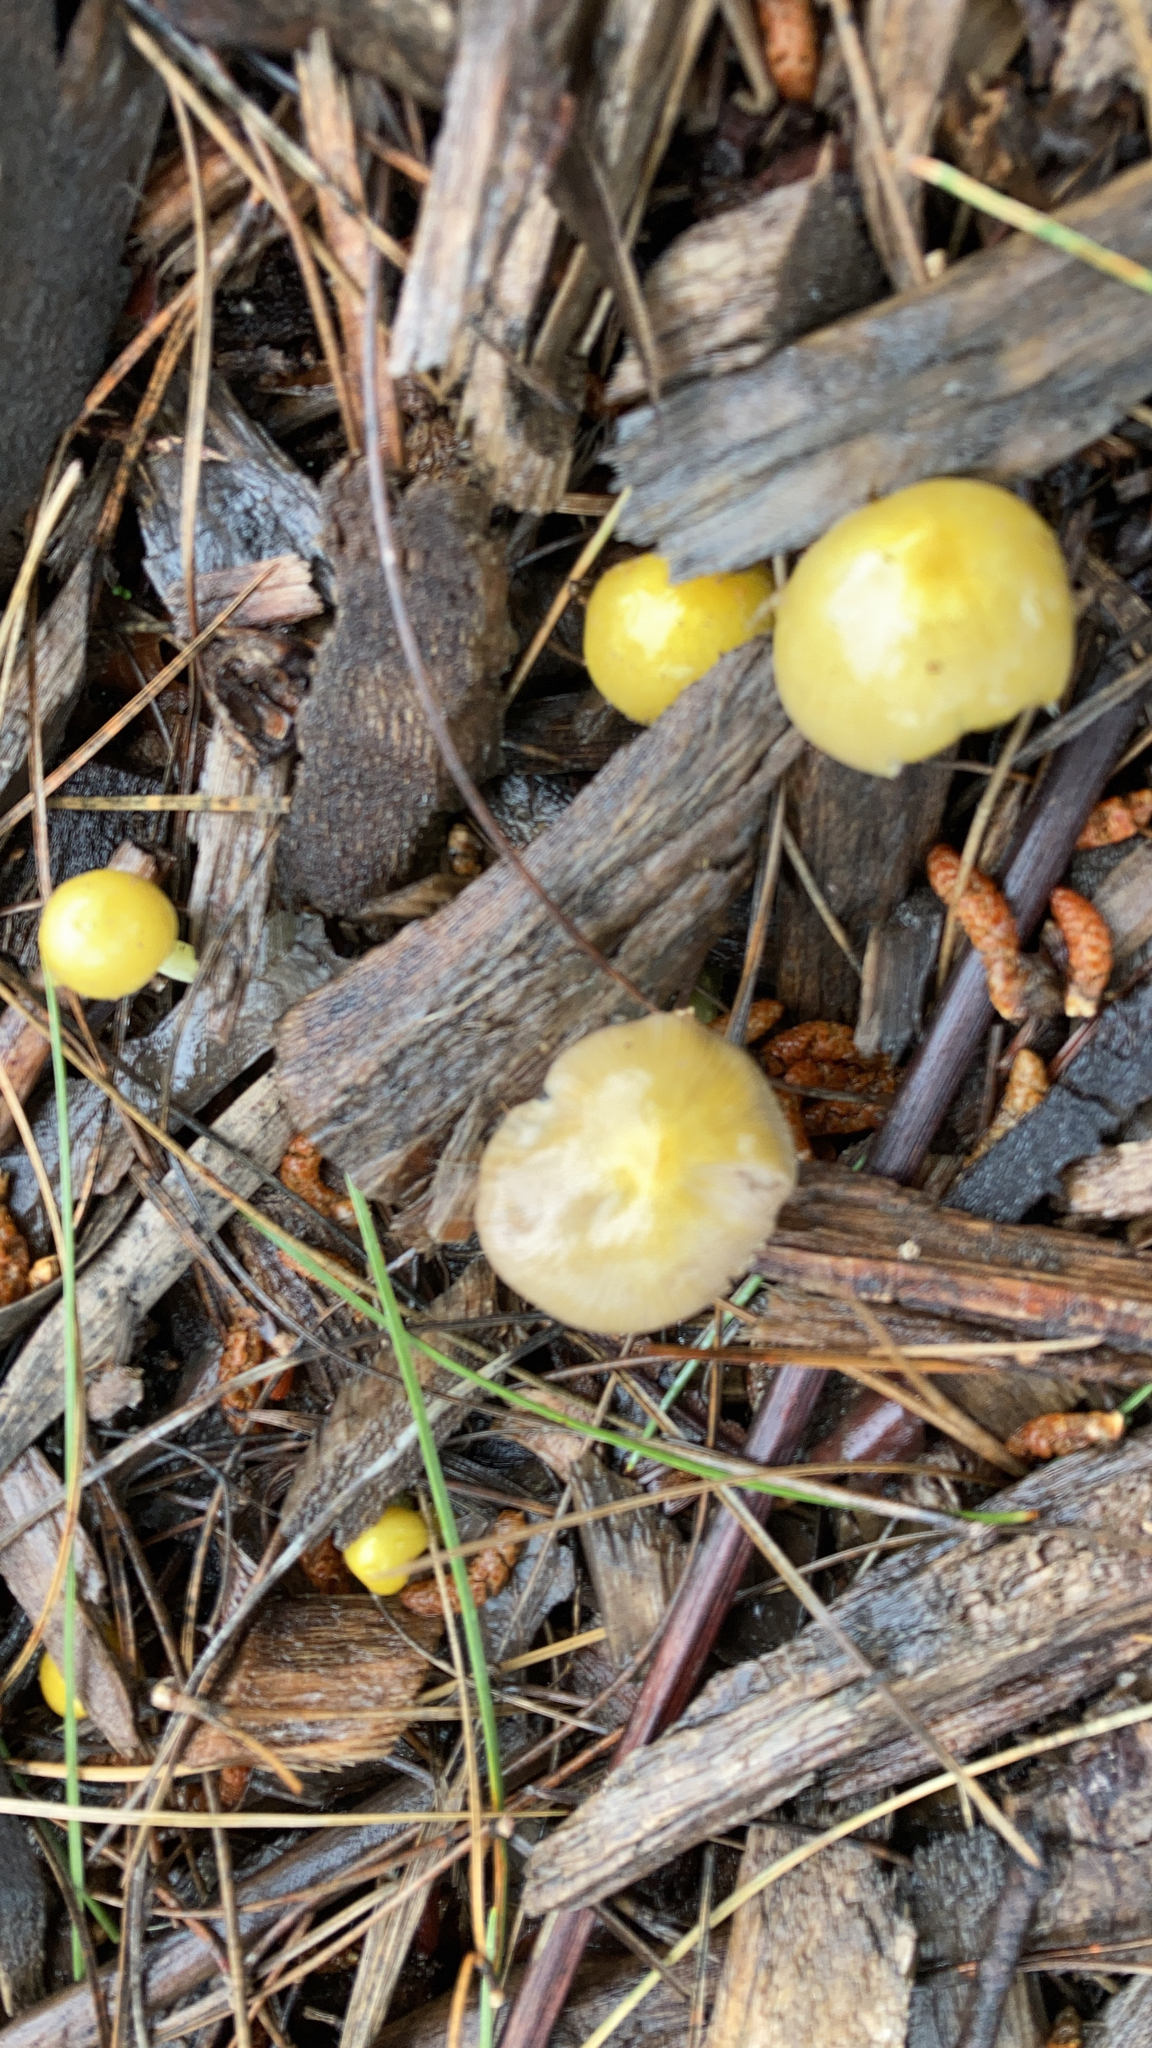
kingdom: Fungi
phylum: Basidiomycota
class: Agaricomycetes
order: Agaricales
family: Bolbitiaceae
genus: Bolbitius
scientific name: Bolbitius titubans
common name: Yellow fieldcap
